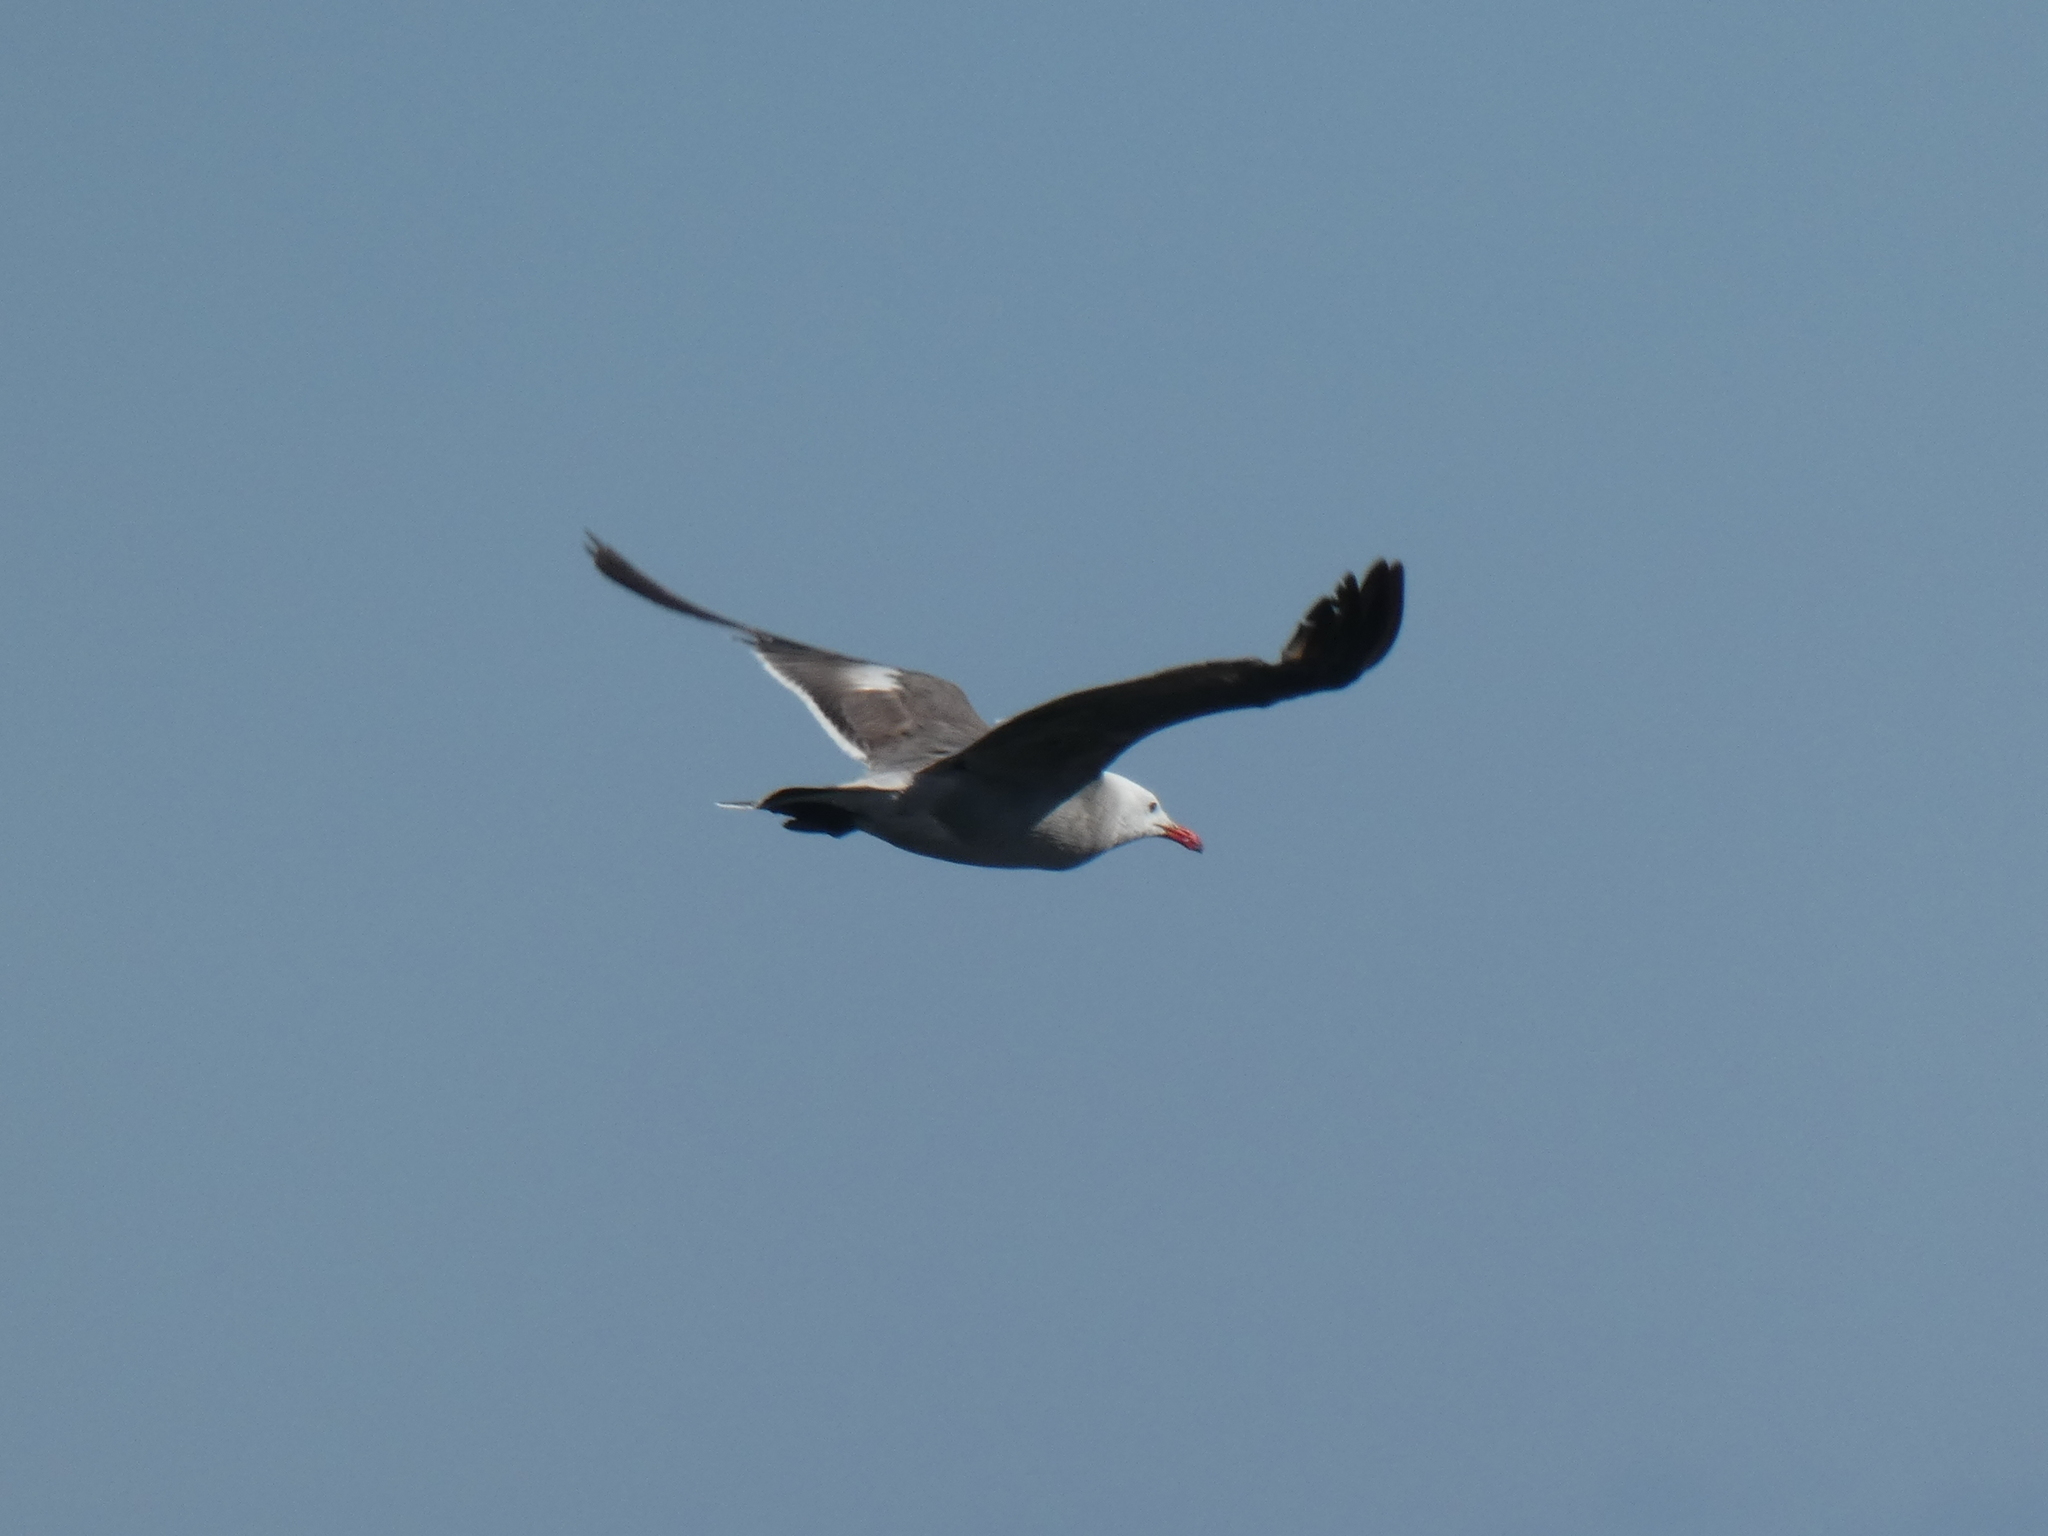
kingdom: Animalia
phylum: Chordata
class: Aves
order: Charadriiformes
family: Laridae
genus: Larus
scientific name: Larus heermanni
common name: Heermann's gull
